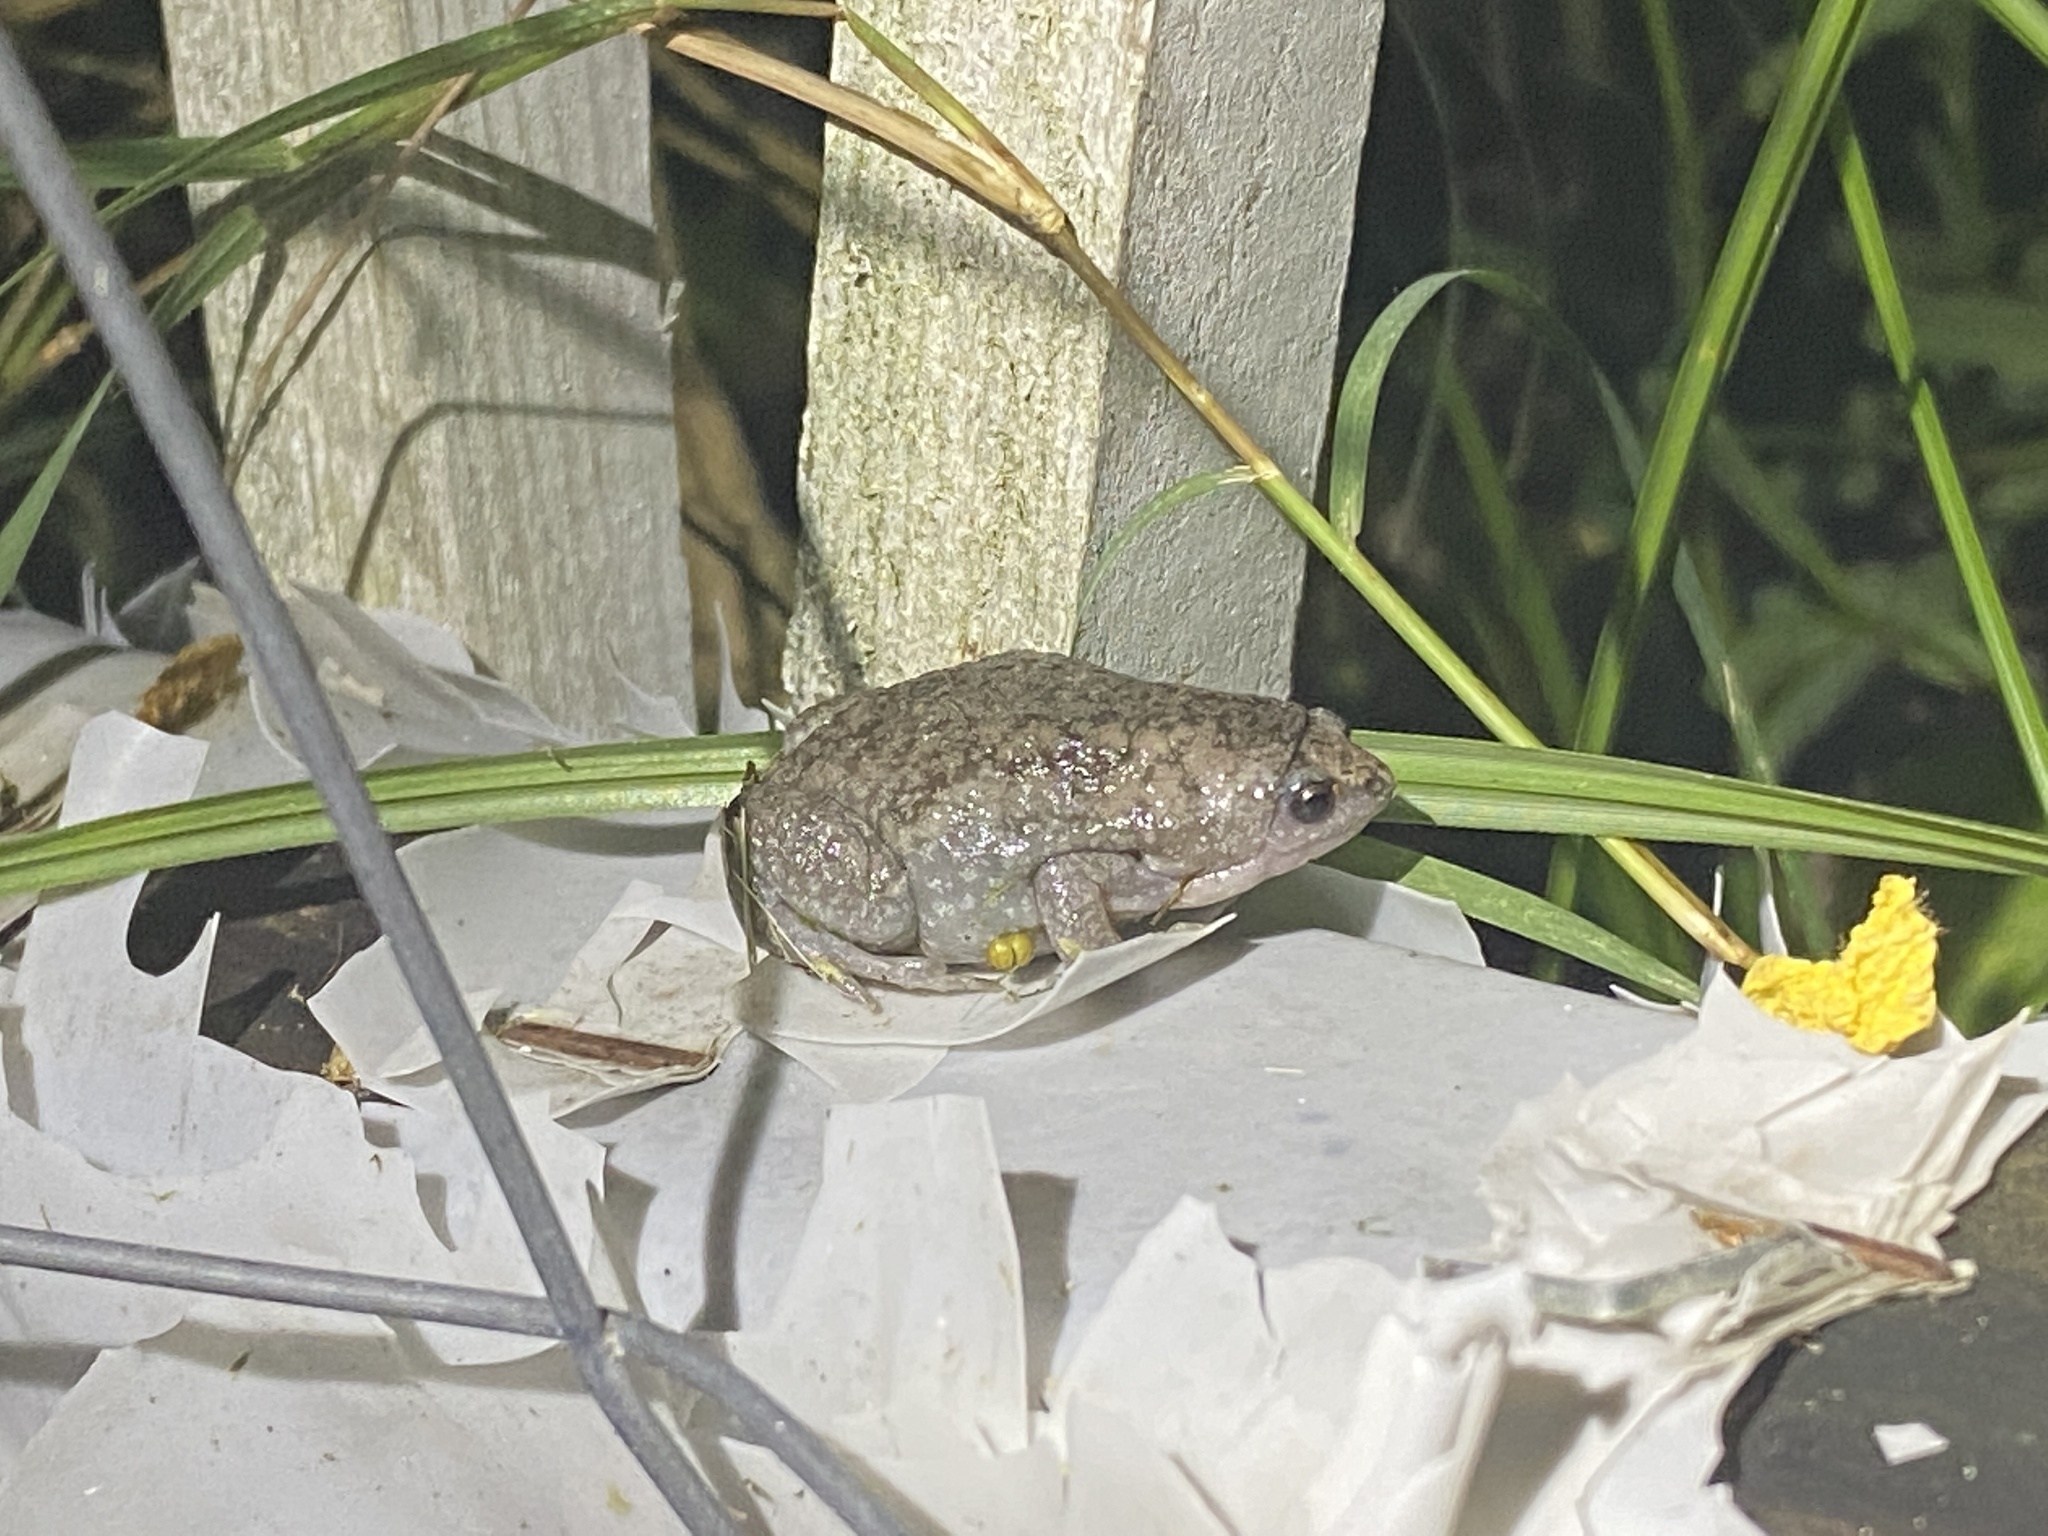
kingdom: Animalia
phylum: Chordata
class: Amphibia
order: Anura
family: Microhylidae
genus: Gastrophryne
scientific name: Gastrophryne carolinensis
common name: Eastern narrowmouth toad
